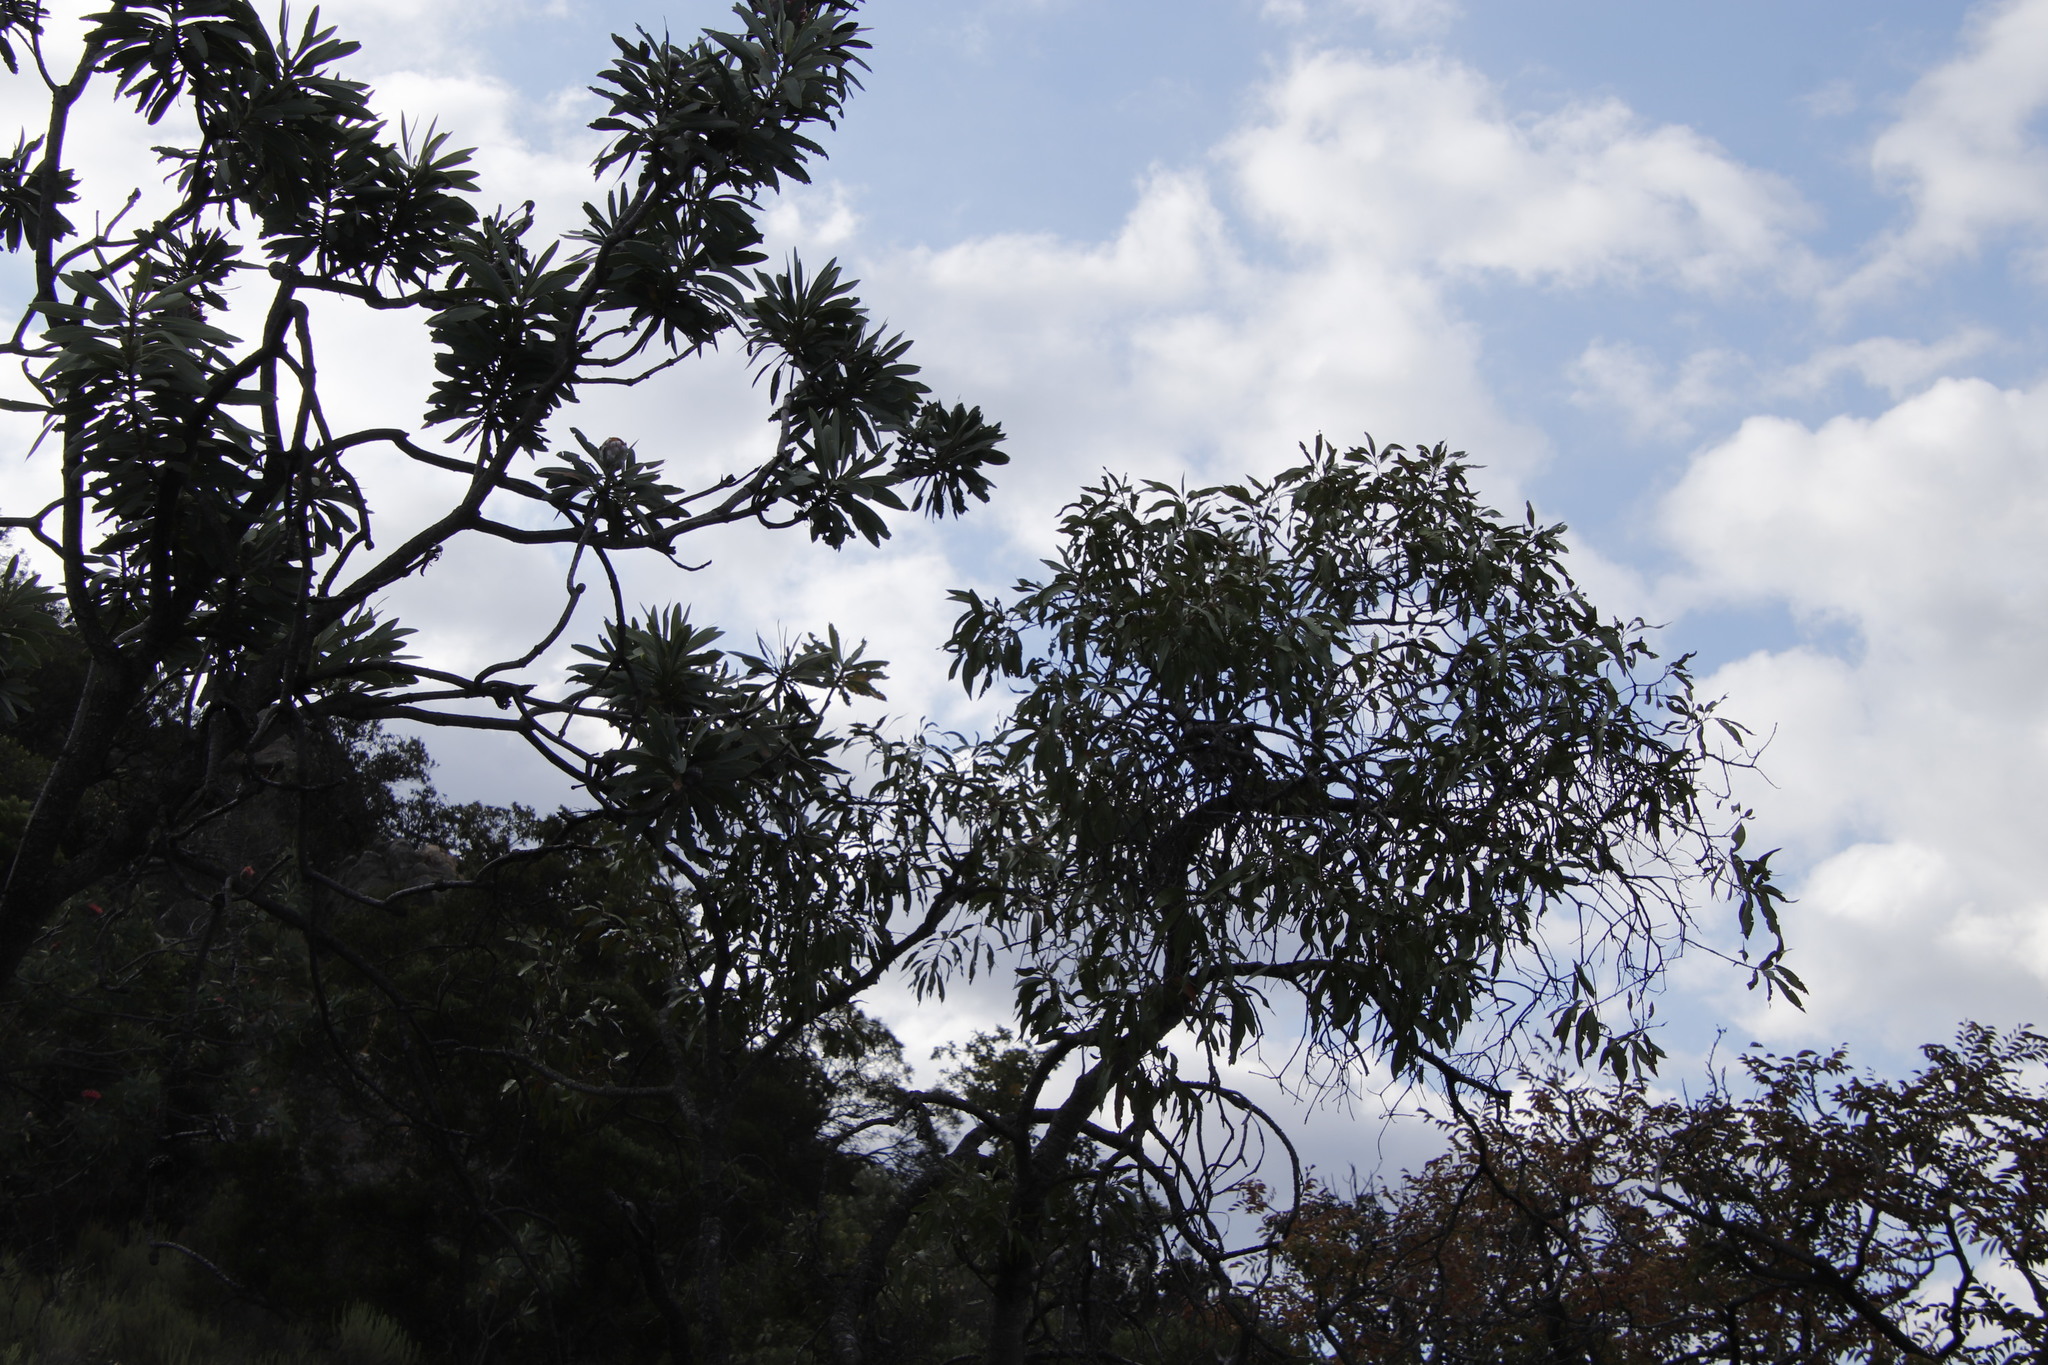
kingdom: Plantae
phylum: Tracheophyta
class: Magnoliopsida
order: Proteales
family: Proteaceae
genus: Faurea
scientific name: Faurea saligna
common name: African bean
